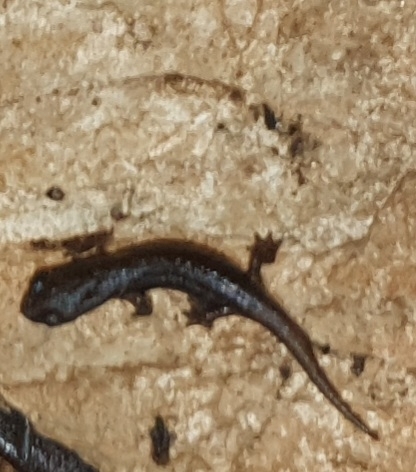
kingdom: Animalia
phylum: Chordata
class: Amphibia
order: Caudata
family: Plethodontidae
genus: Speleomantes
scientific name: Speleomantes ambrosii
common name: Ambrosi's cave salamander
